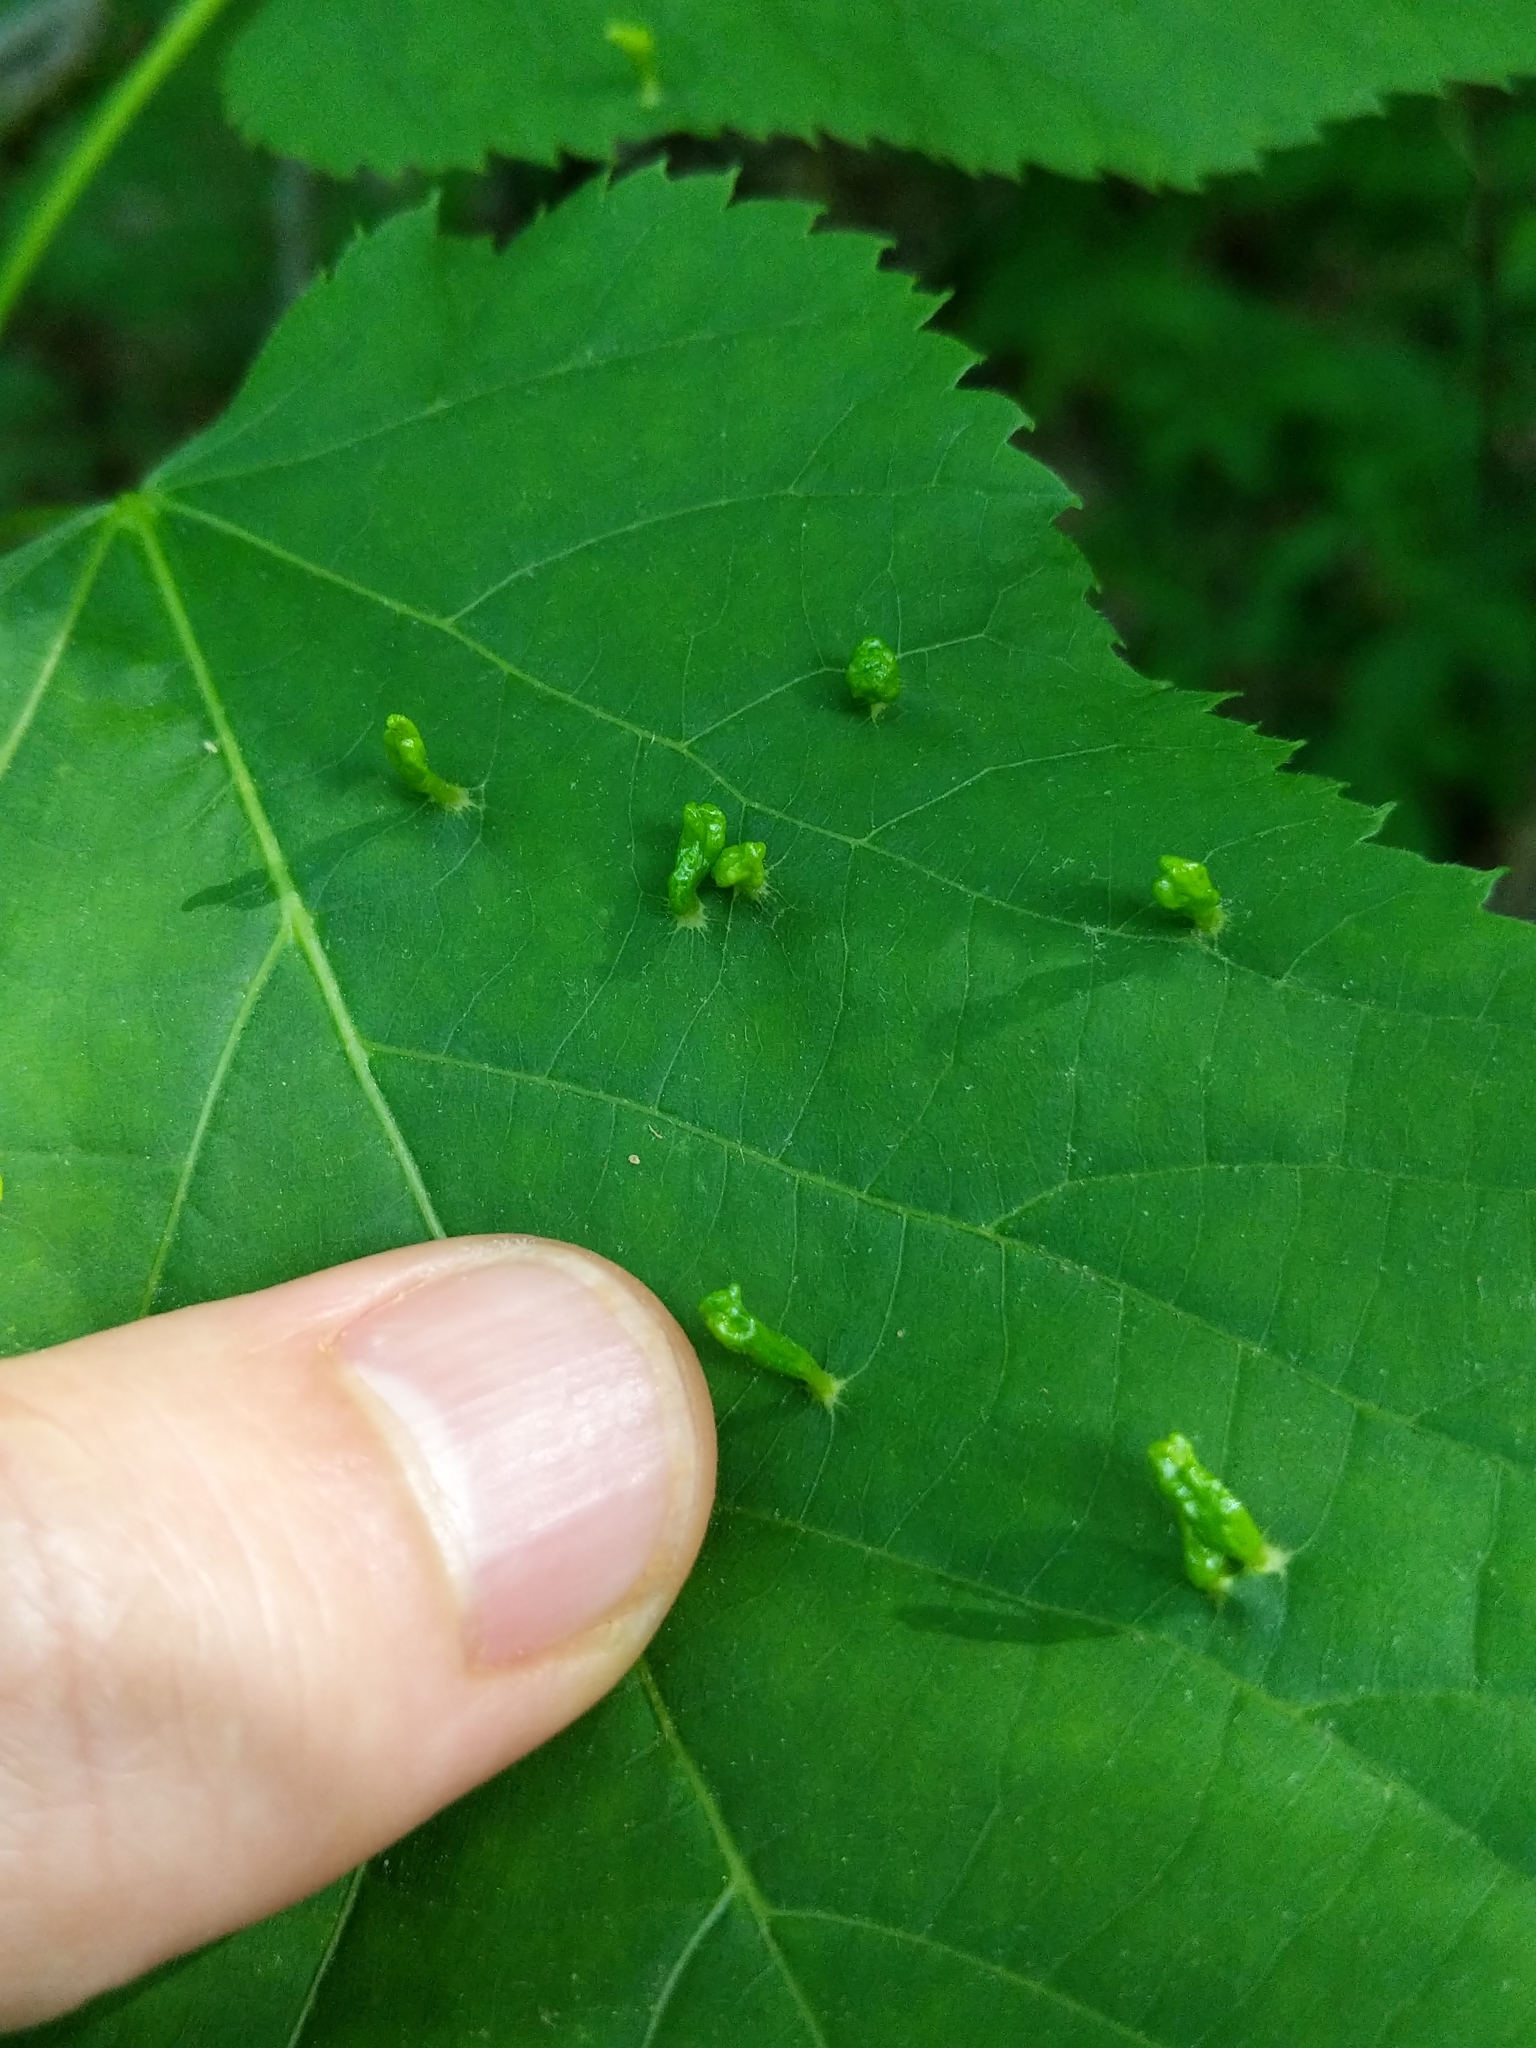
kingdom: Animalia
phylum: Arthropoda
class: Arachnida
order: Trombidiformes
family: Eriophyidae
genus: Eriophyes
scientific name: Eriophyes tiliae
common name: Red nail gall mite
